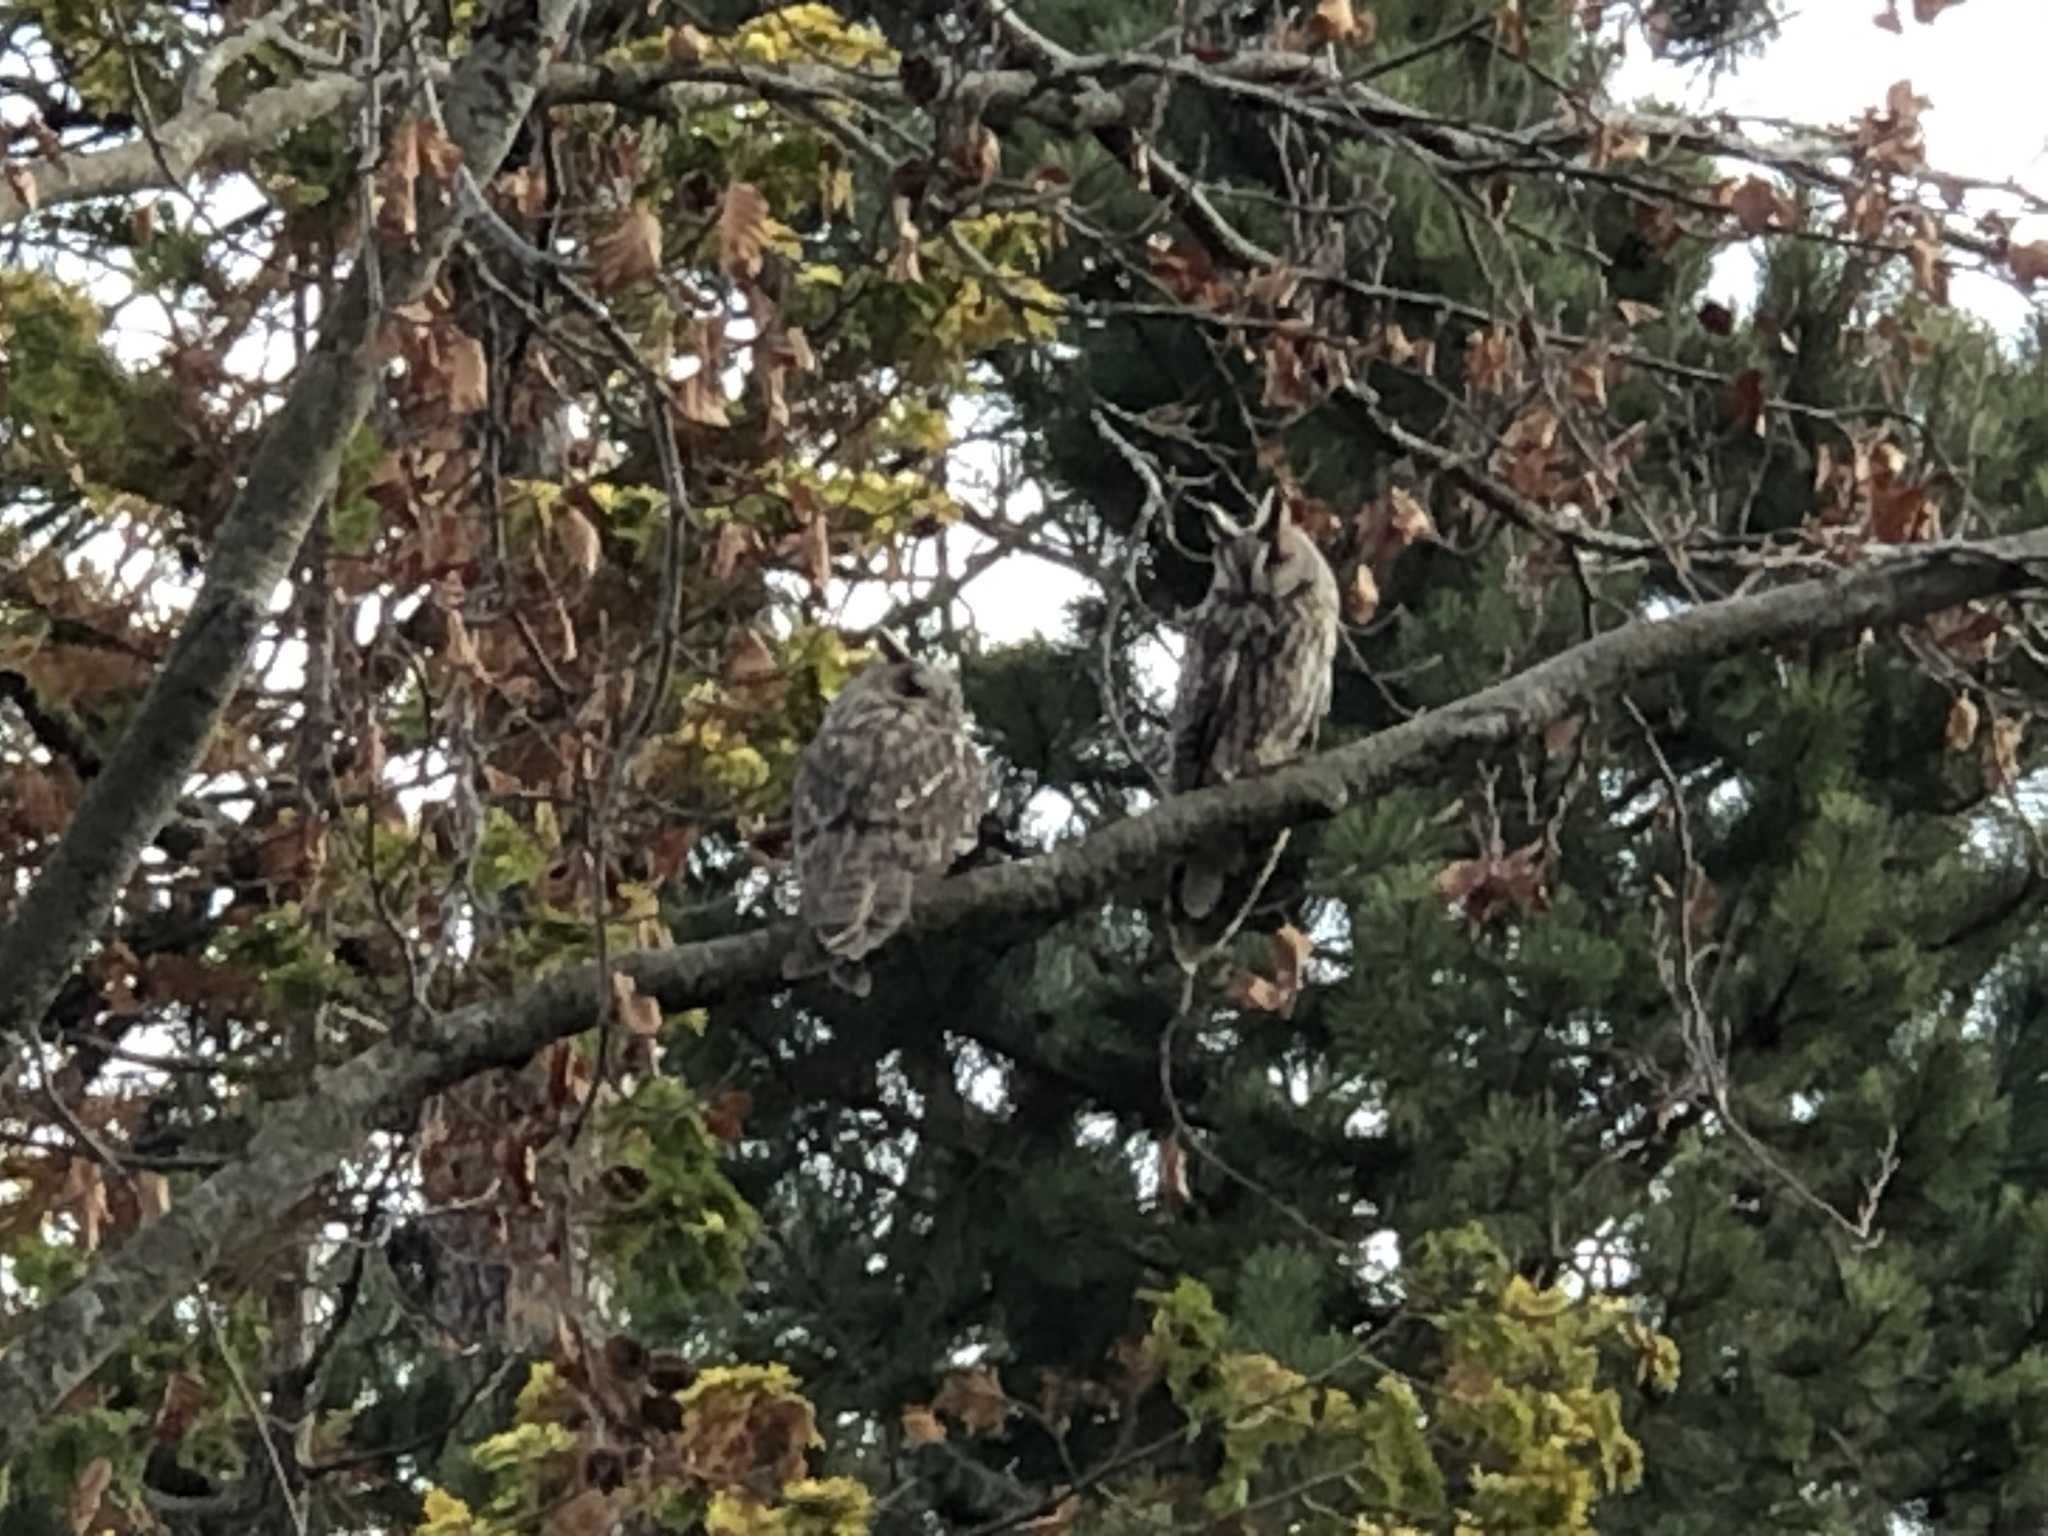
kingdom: Animalia
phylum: Chordata
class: Aves
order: Strigiformes
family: Strigidae
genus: Asio
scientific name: Asio otus
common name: Long-eared owl
